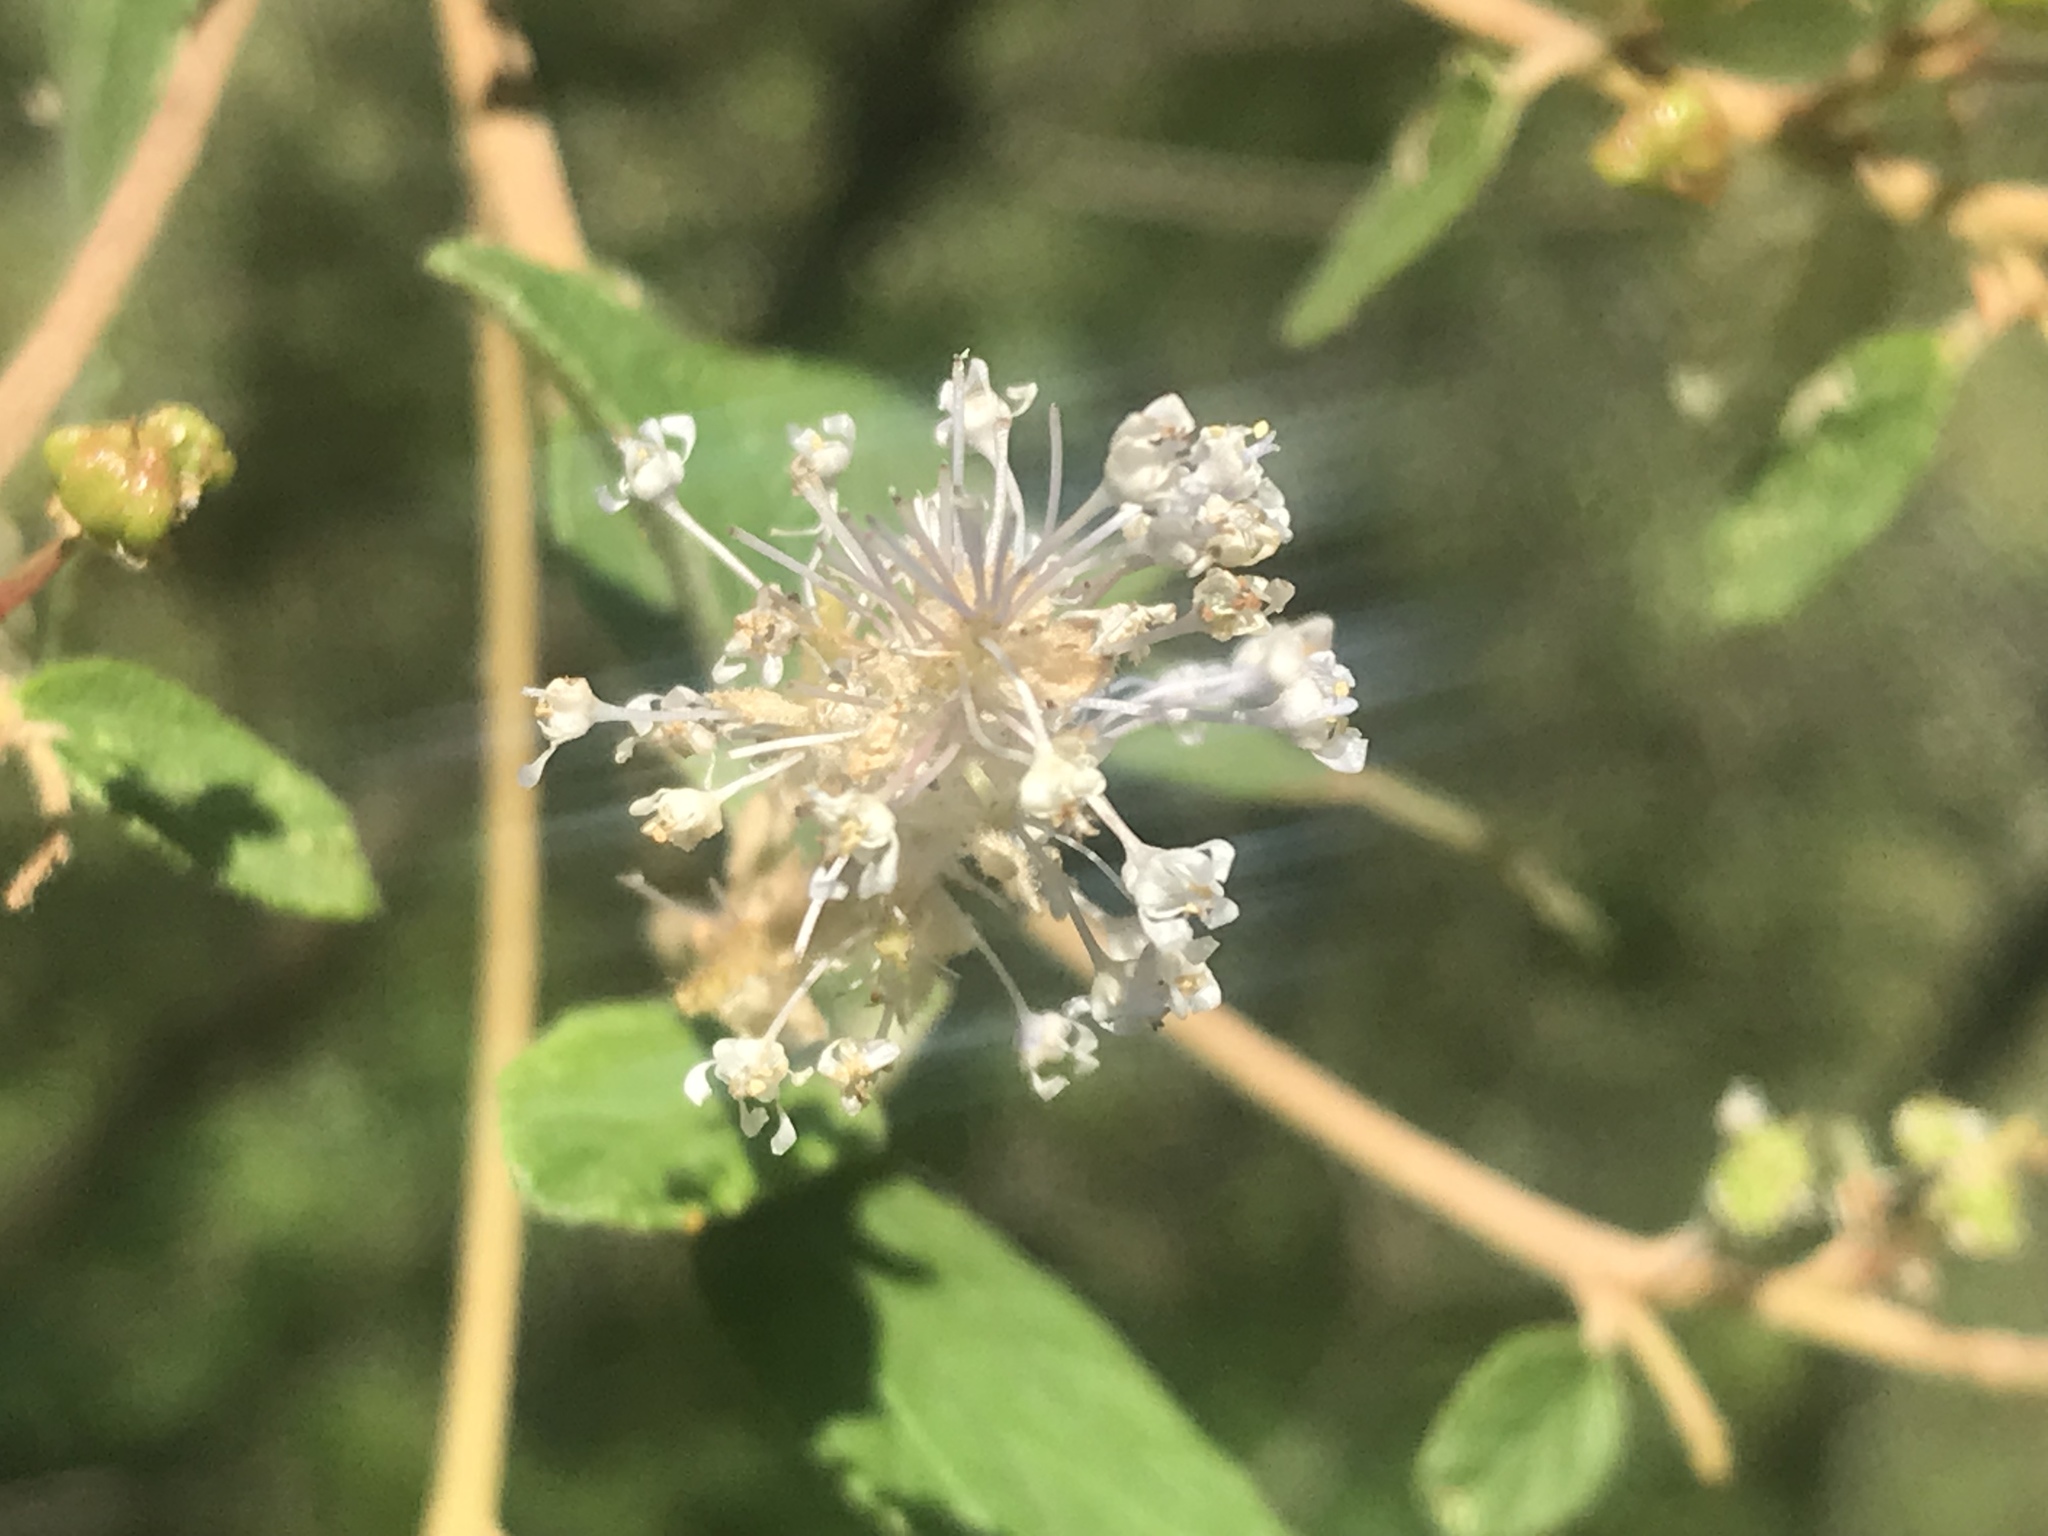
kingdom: Plantae
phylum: Tracheophyta
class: Magnoliopsida
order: Rosales
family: Rhamnaceae
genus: Ceanothus
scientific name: Ceanothus caeruleus
